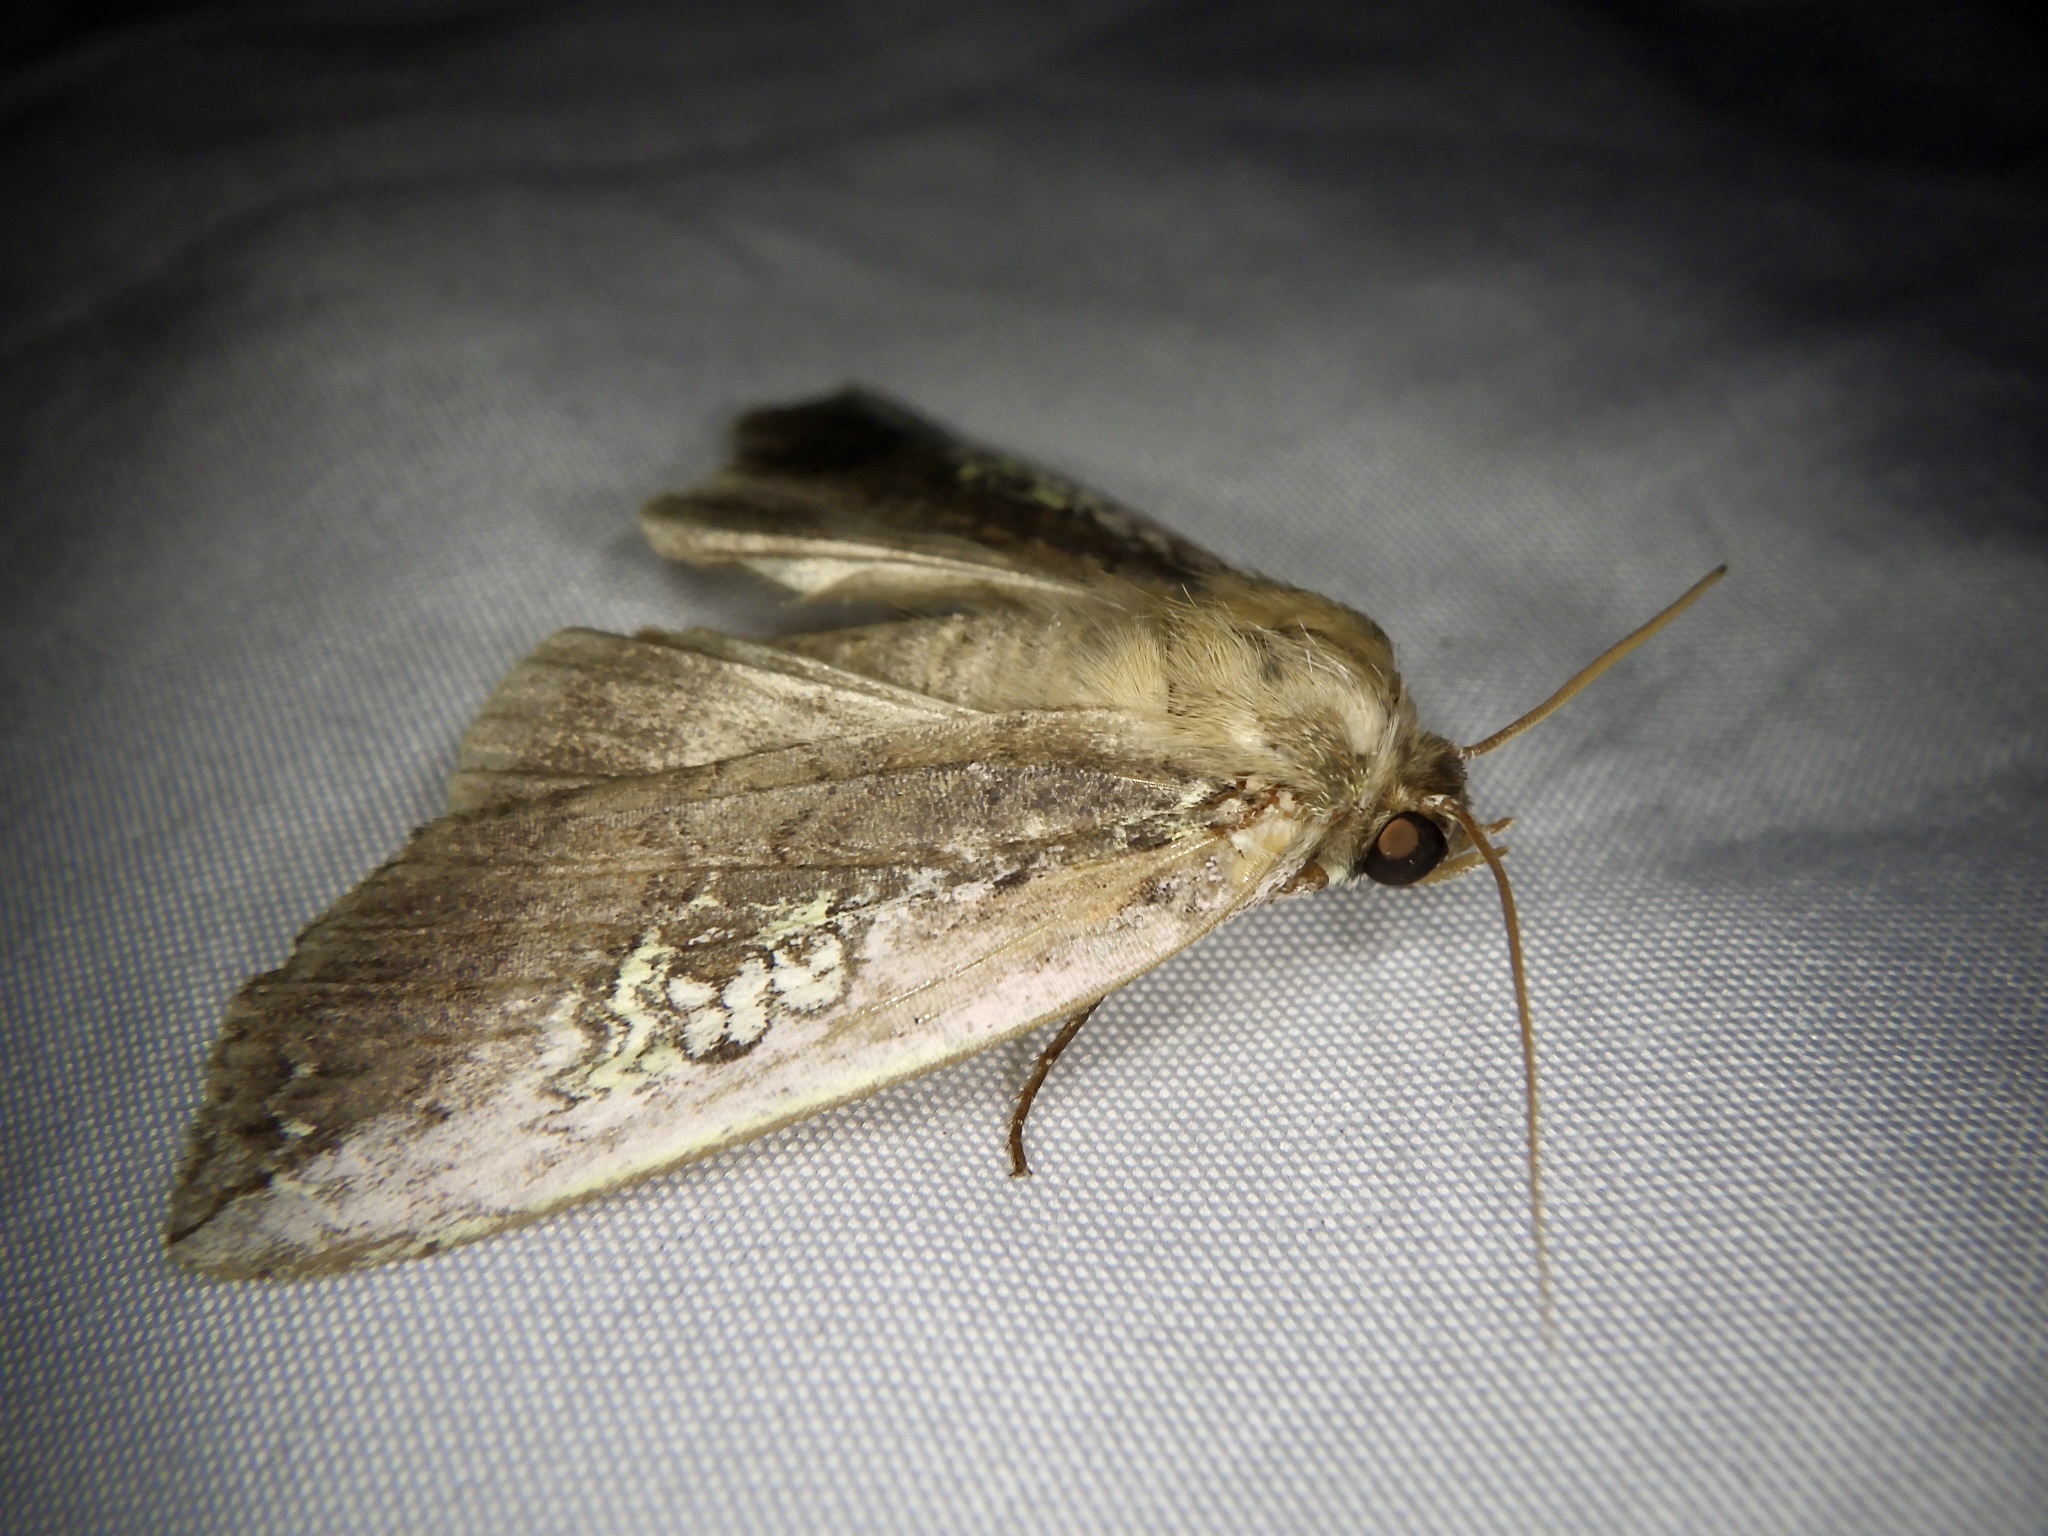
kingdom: Animalia
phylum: Arthropoda
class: Insecta
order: Lepidoptera
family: Drepanidae
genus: Tethea
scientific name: Tethea consimilis
